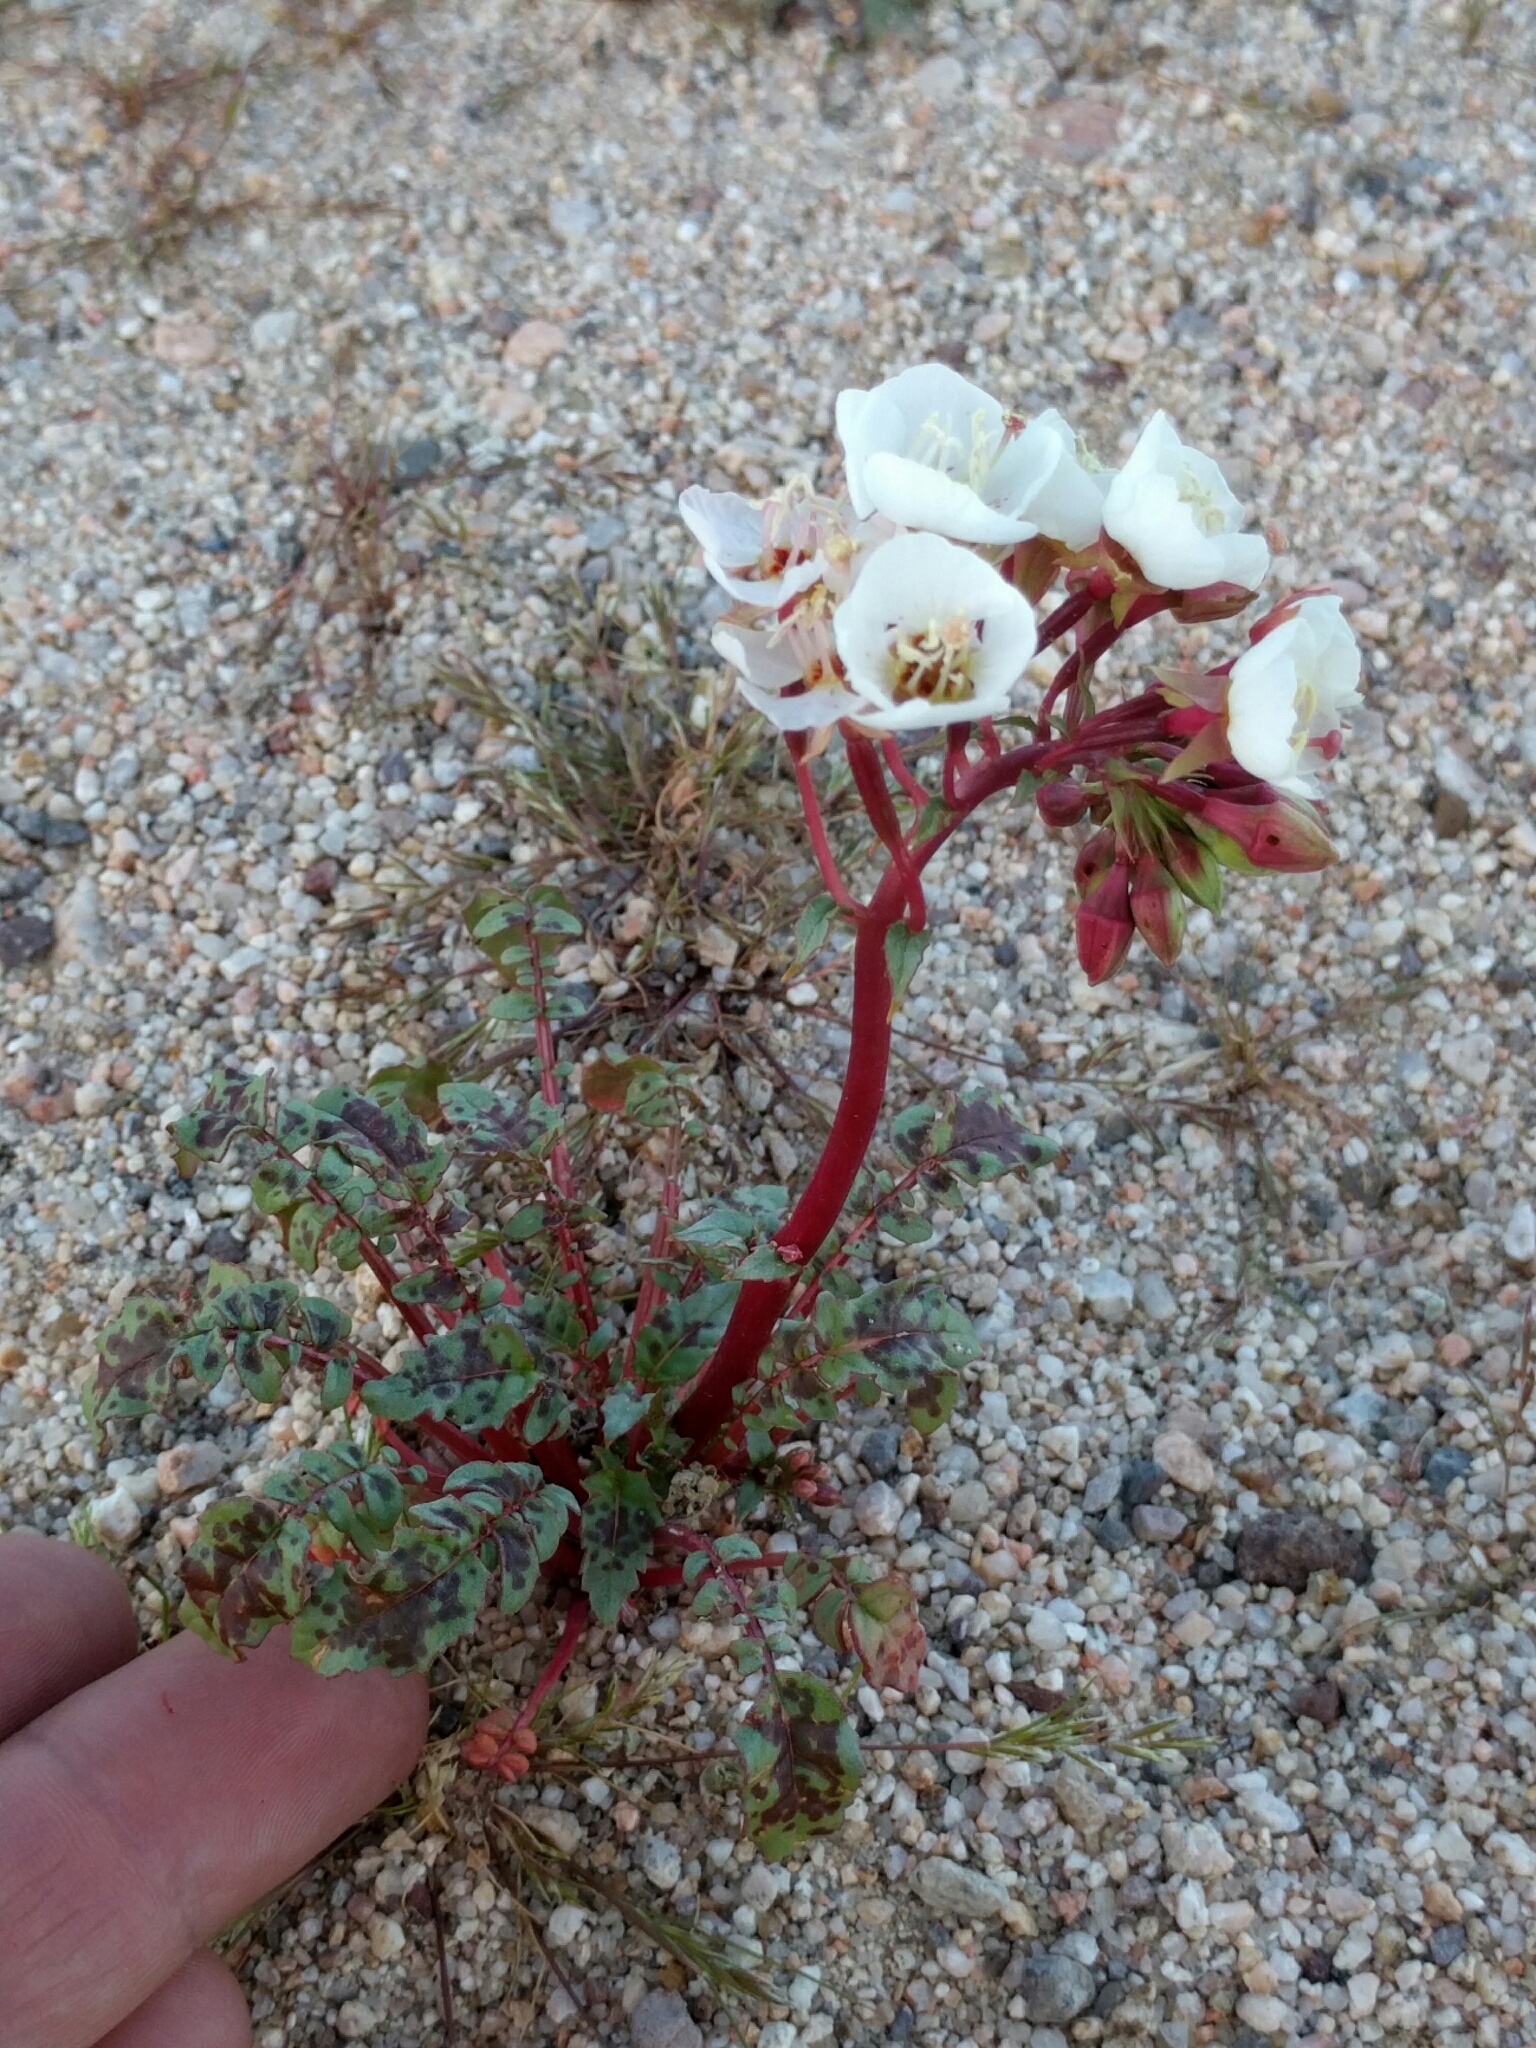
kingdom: Plantae
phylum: Tracheophyta
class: Magnoliopsida
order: Myrtales
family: Onagraceae
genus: Chylismia
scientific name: Chylismia claviformis
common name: Browneyes
